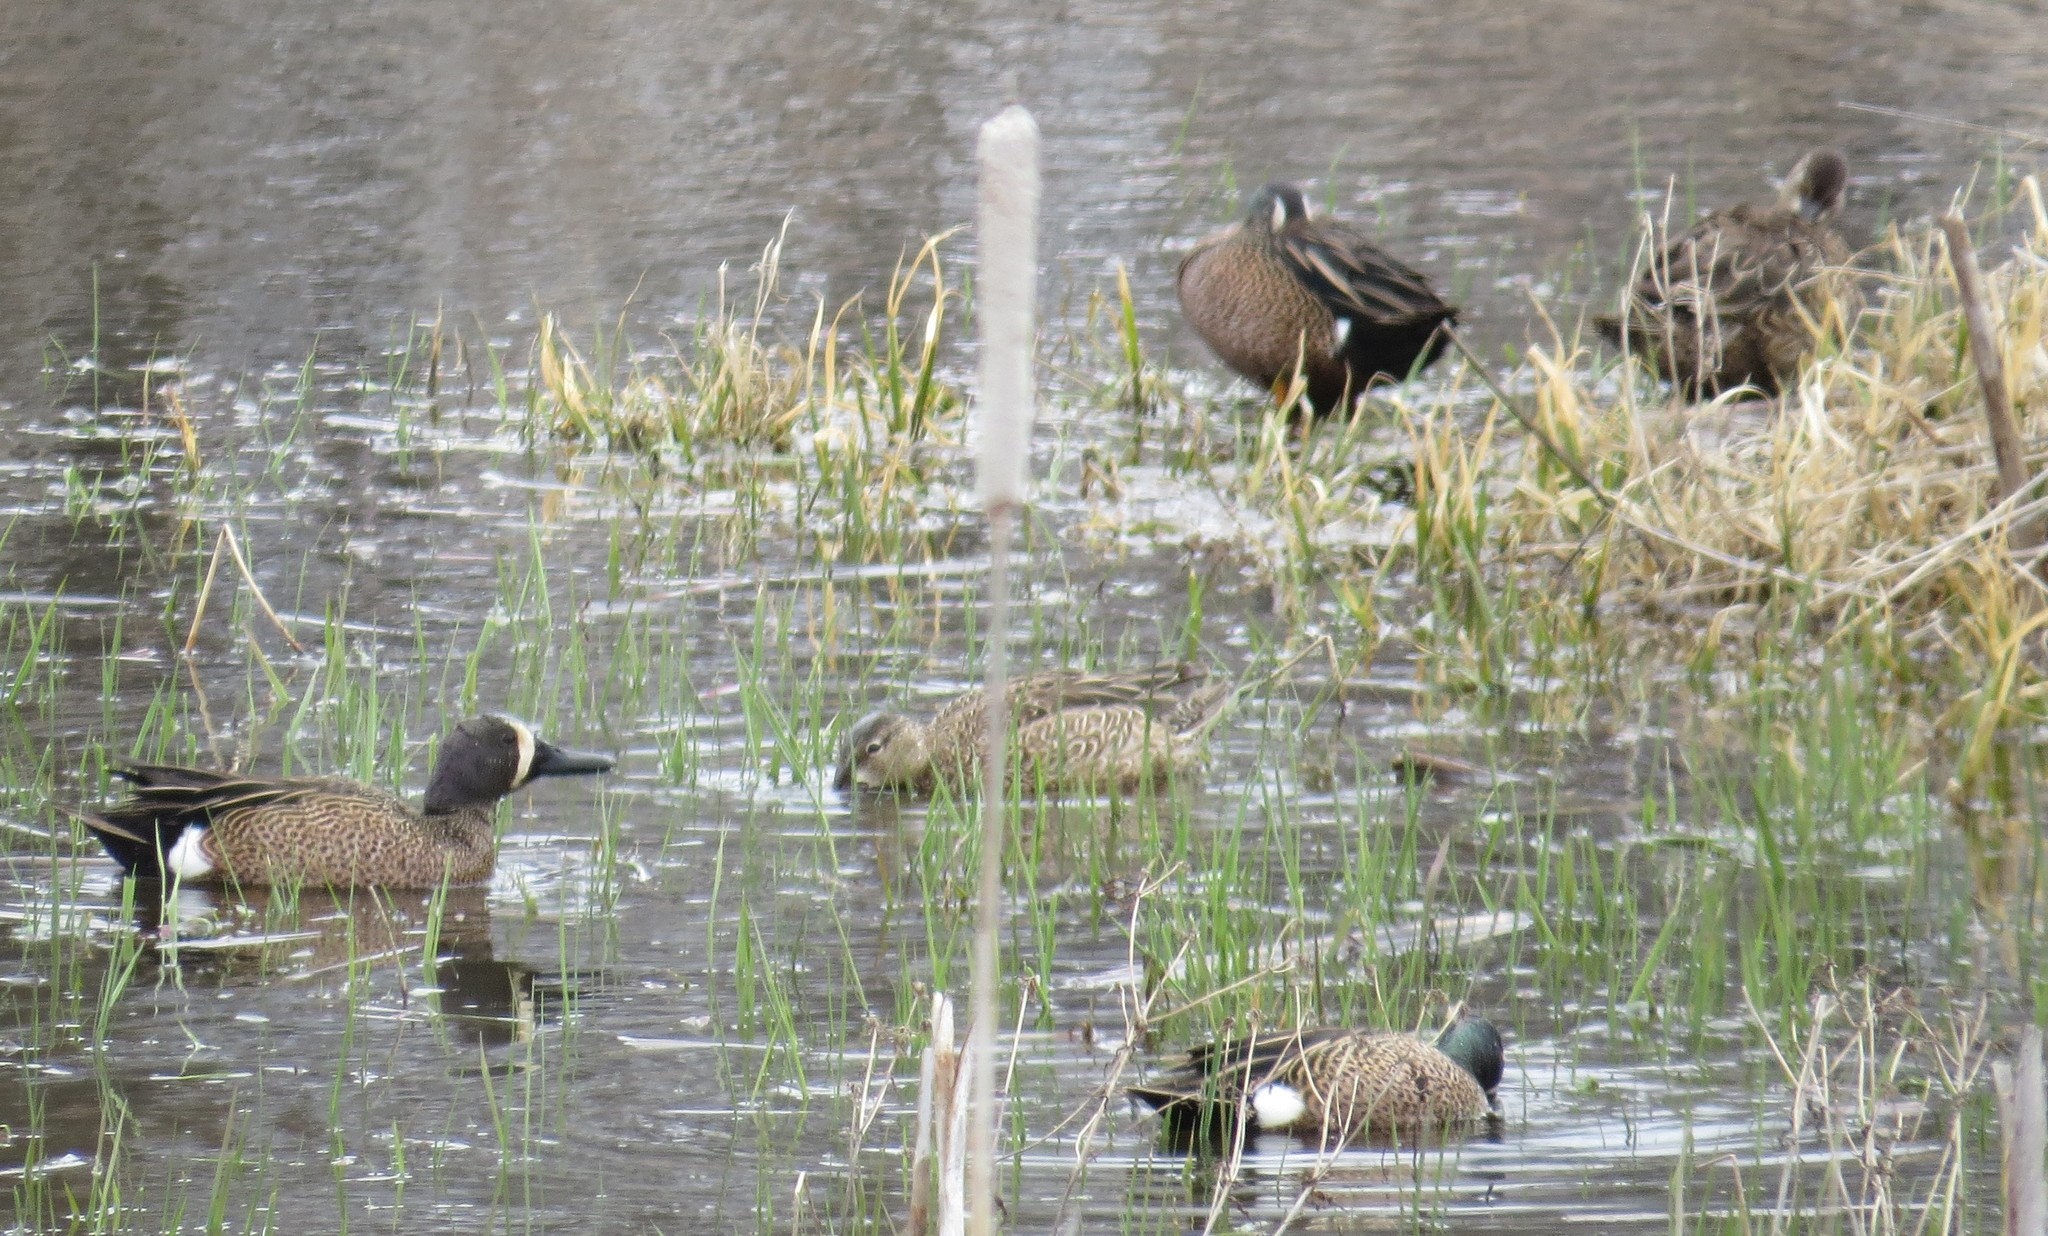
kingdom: Animalia
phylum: Chordata
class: Aves
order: Anseriformes
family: Anatidae
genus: Spatula
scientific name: Spatula discors
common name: Blue-winged teal
